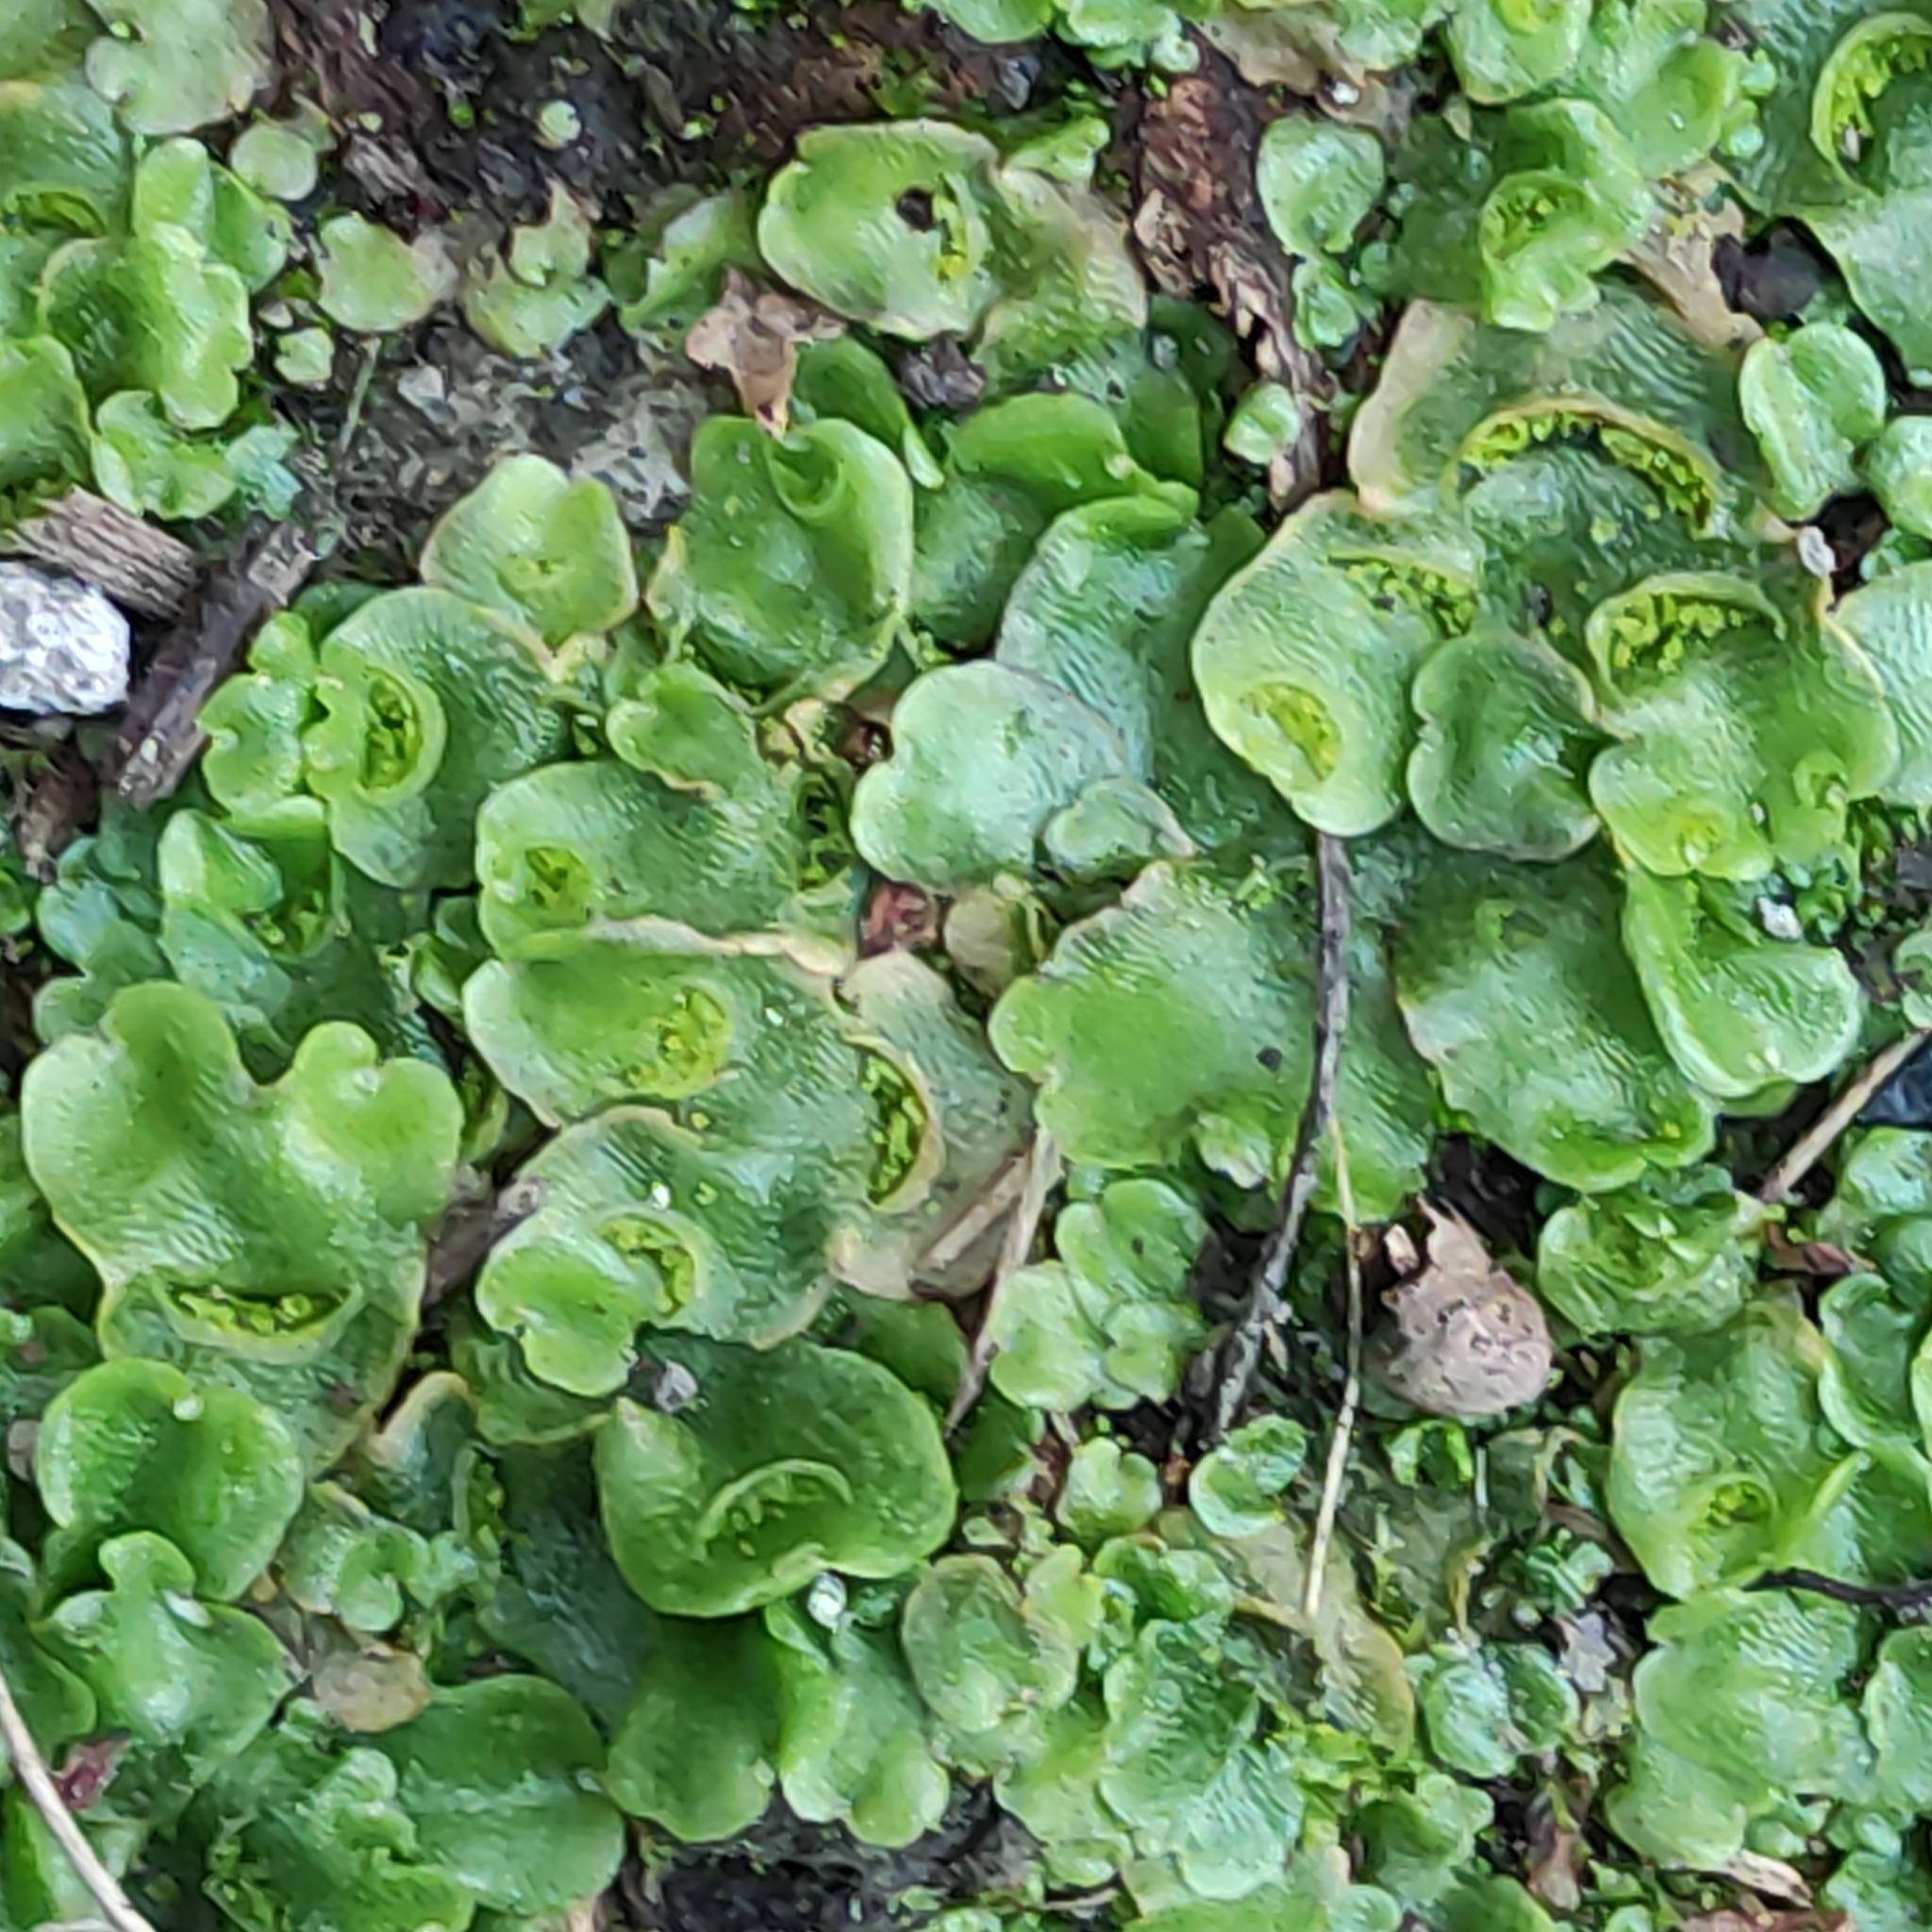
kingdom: Plantae
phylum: Marchantiophyta
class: Marchantiopsida
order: Lunulariales
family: Lunulariaceae
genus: Lunularia
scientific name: Lunularia cruciata
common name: Crescent-cup liverwort
